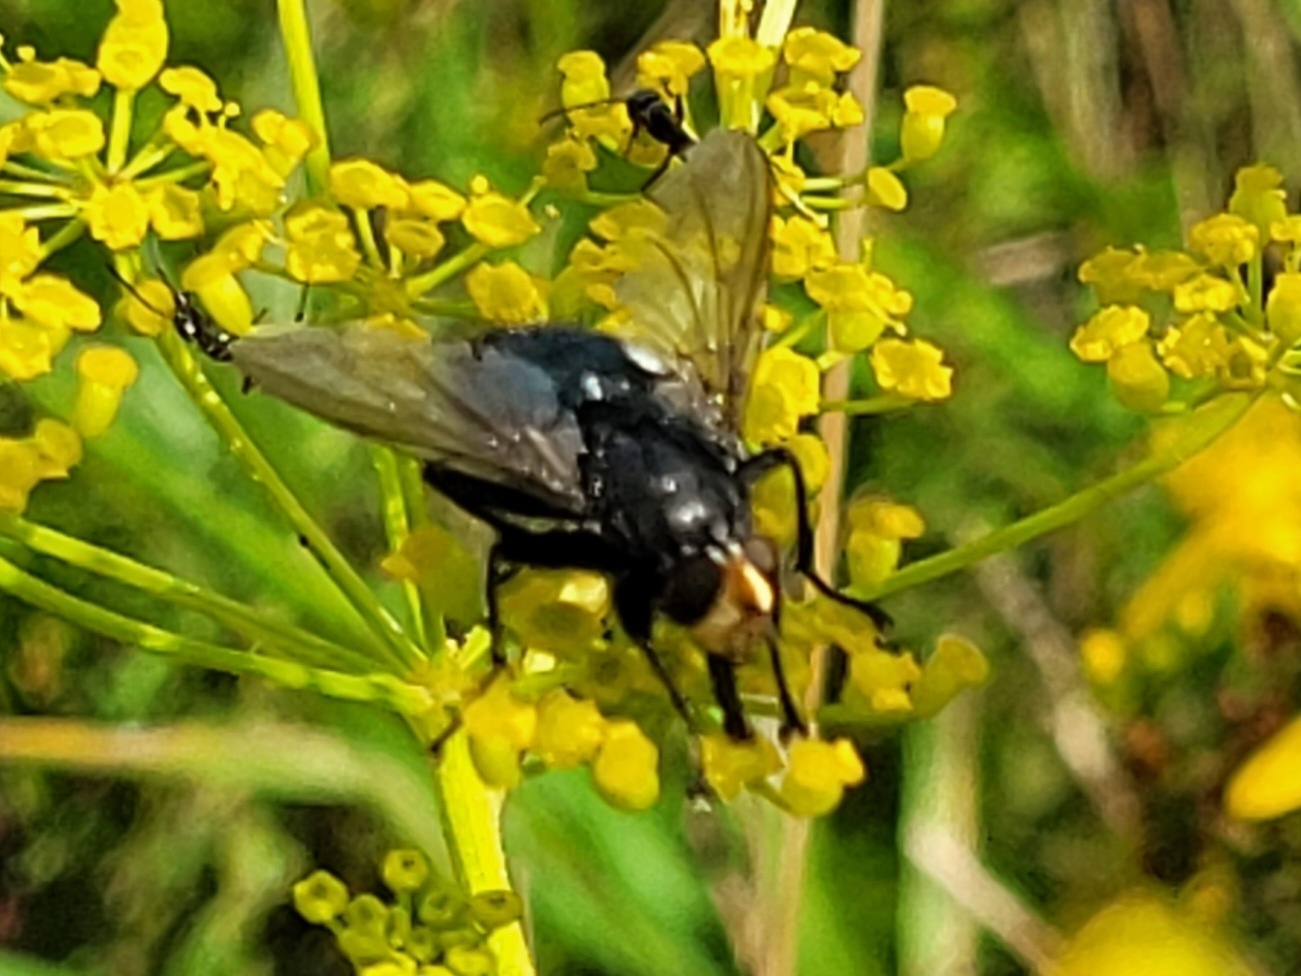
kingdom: Animalia
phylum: Arthropoda
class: Insecta
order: Diptera
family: Calliphoridae
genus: Cynomya
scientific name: Cynomya mortuorum
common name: Bluebottle blow fly
